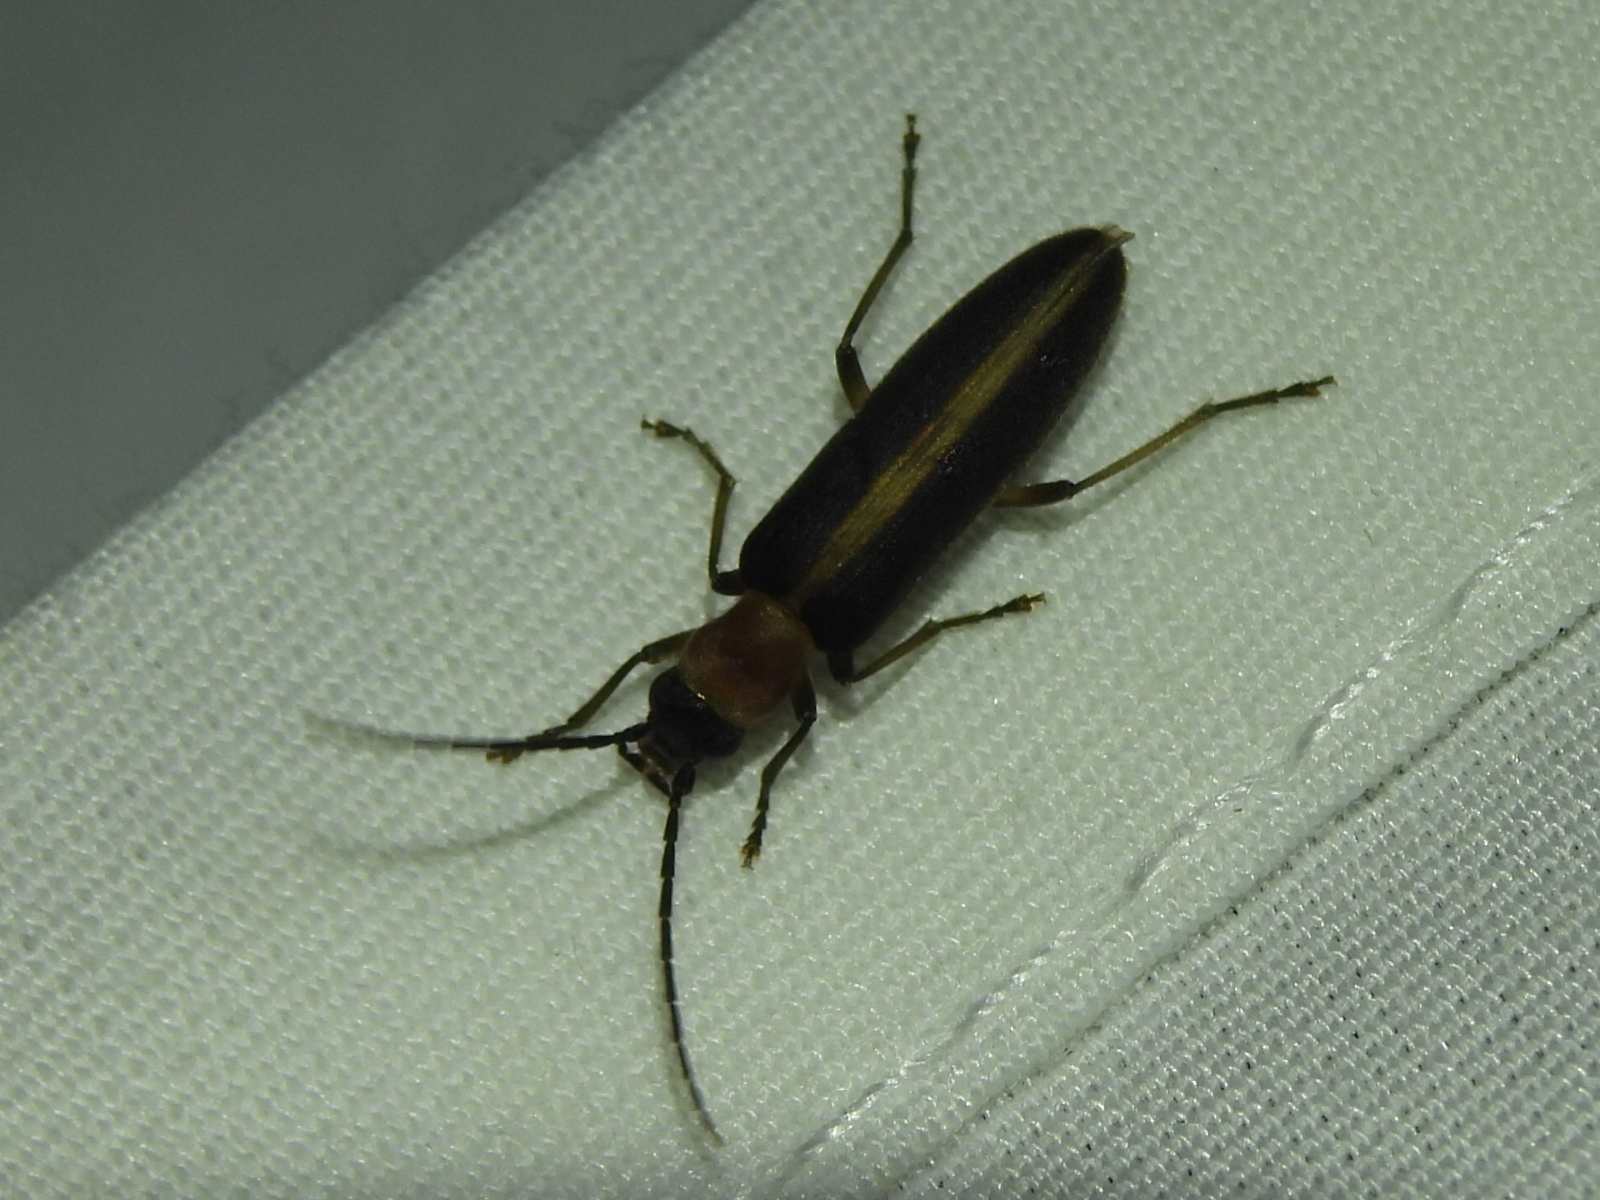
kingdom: Animalia
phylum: Arthropoda
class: Insecta
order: Coleoptera
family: Oedemeridae
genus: Oxycopis
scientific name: Oxycopis mimetica
